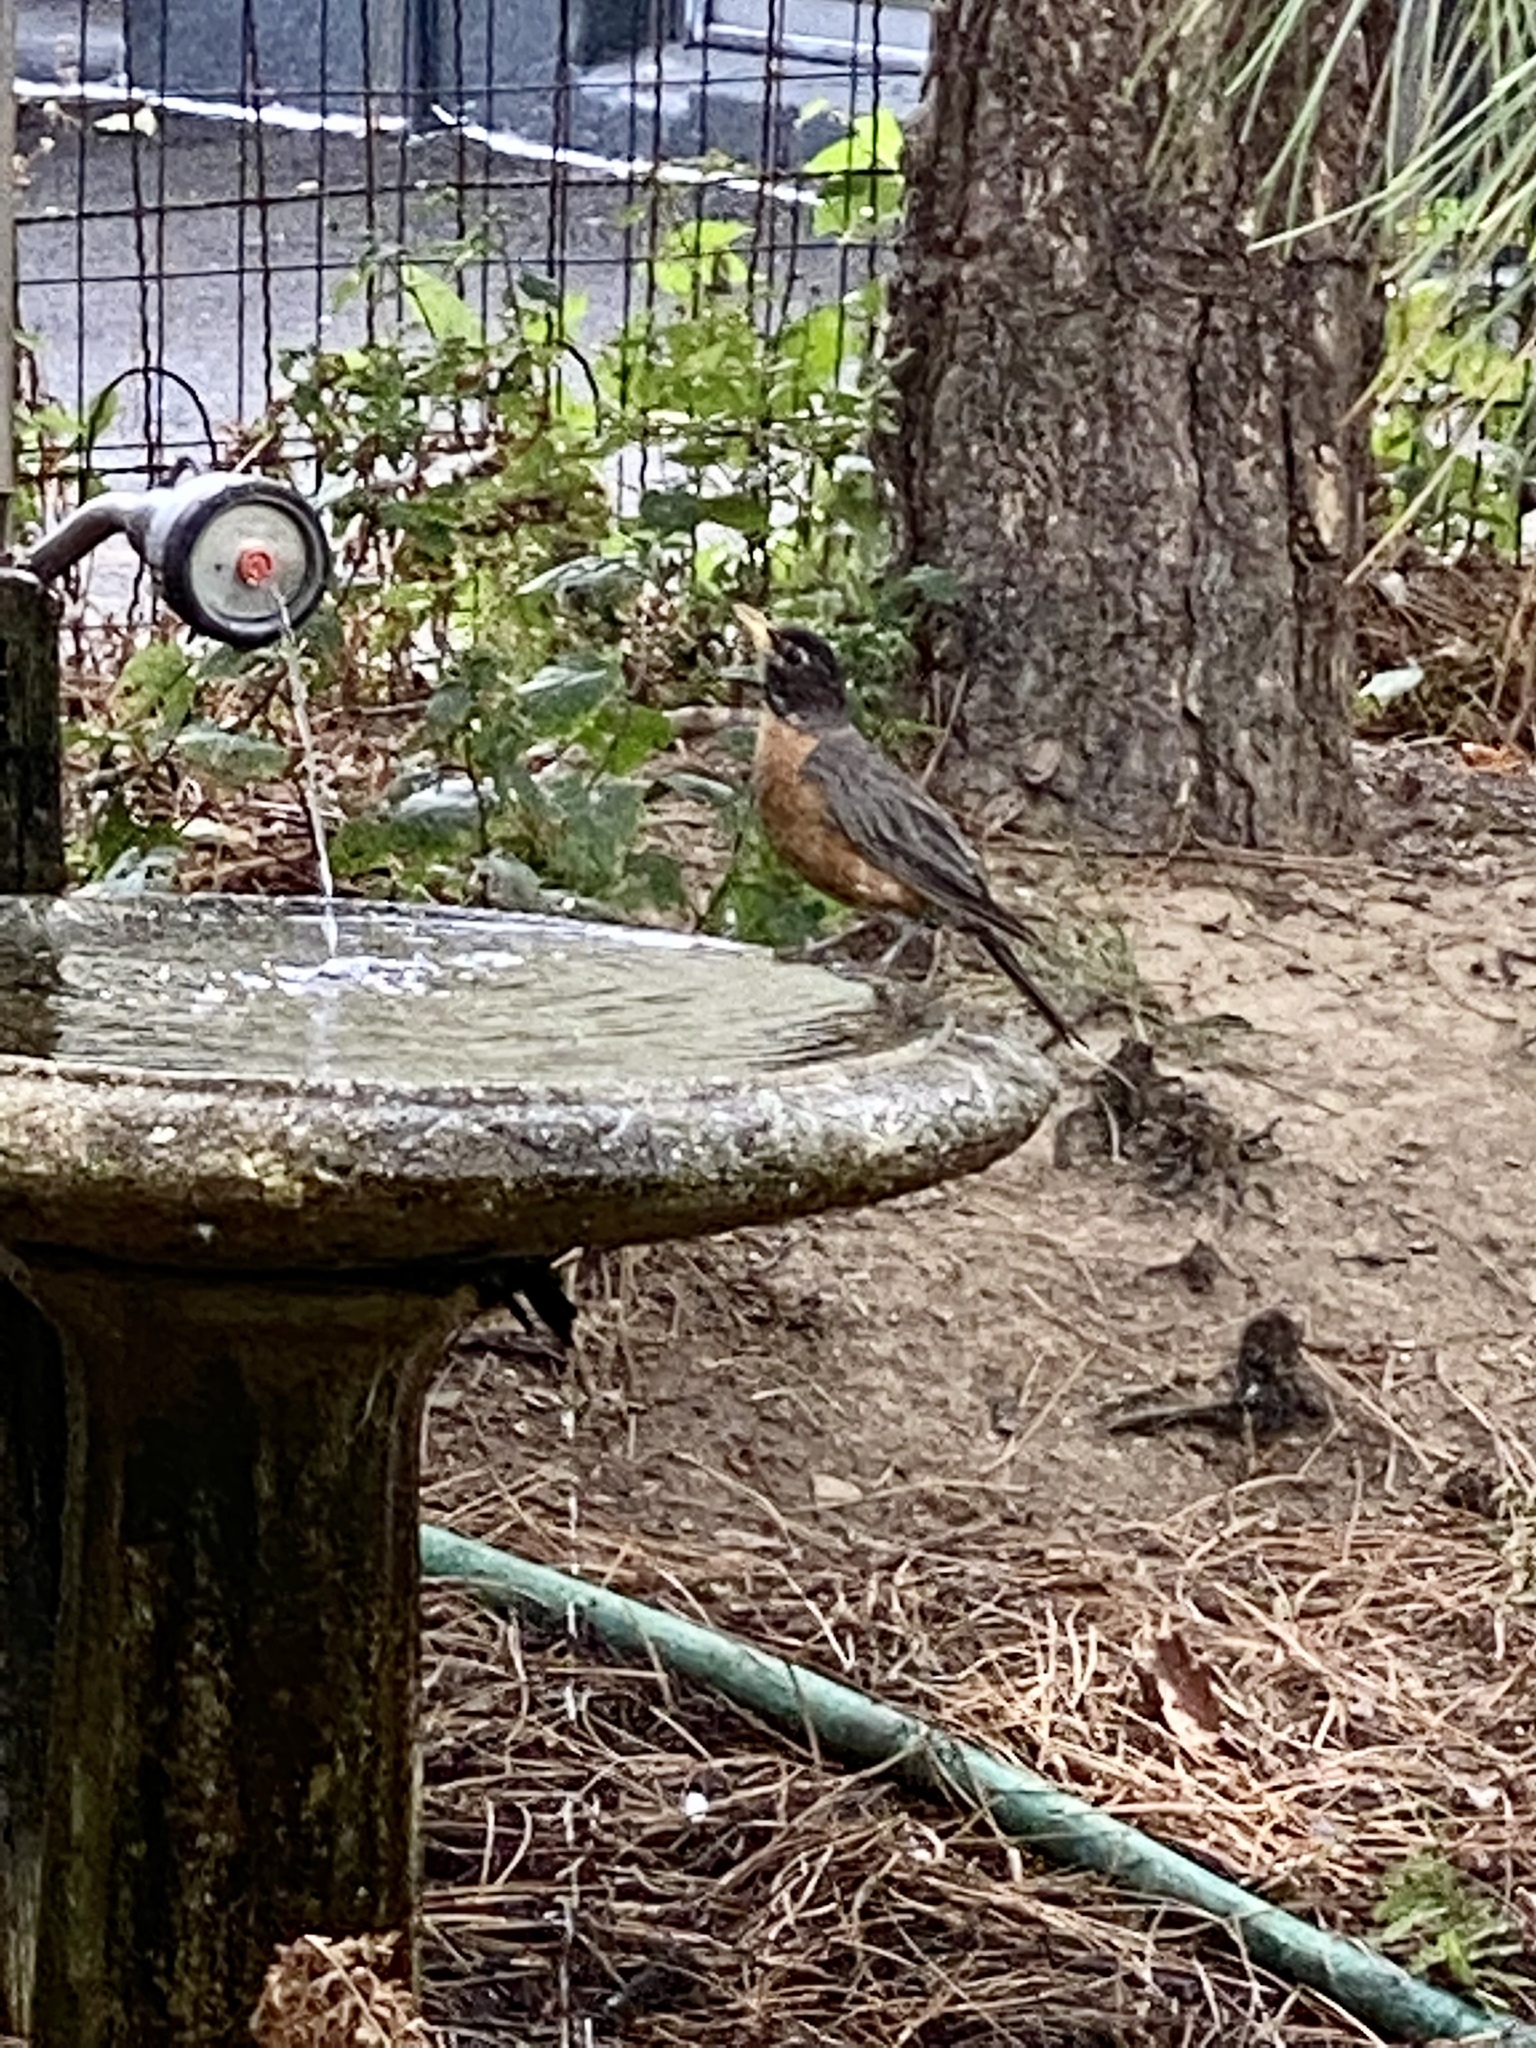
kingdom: Animalia
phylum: Chordata
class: Aves
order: Passeriformes
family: Turdidae
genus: Turdus
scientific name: Turdus migratorius
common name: American robin
